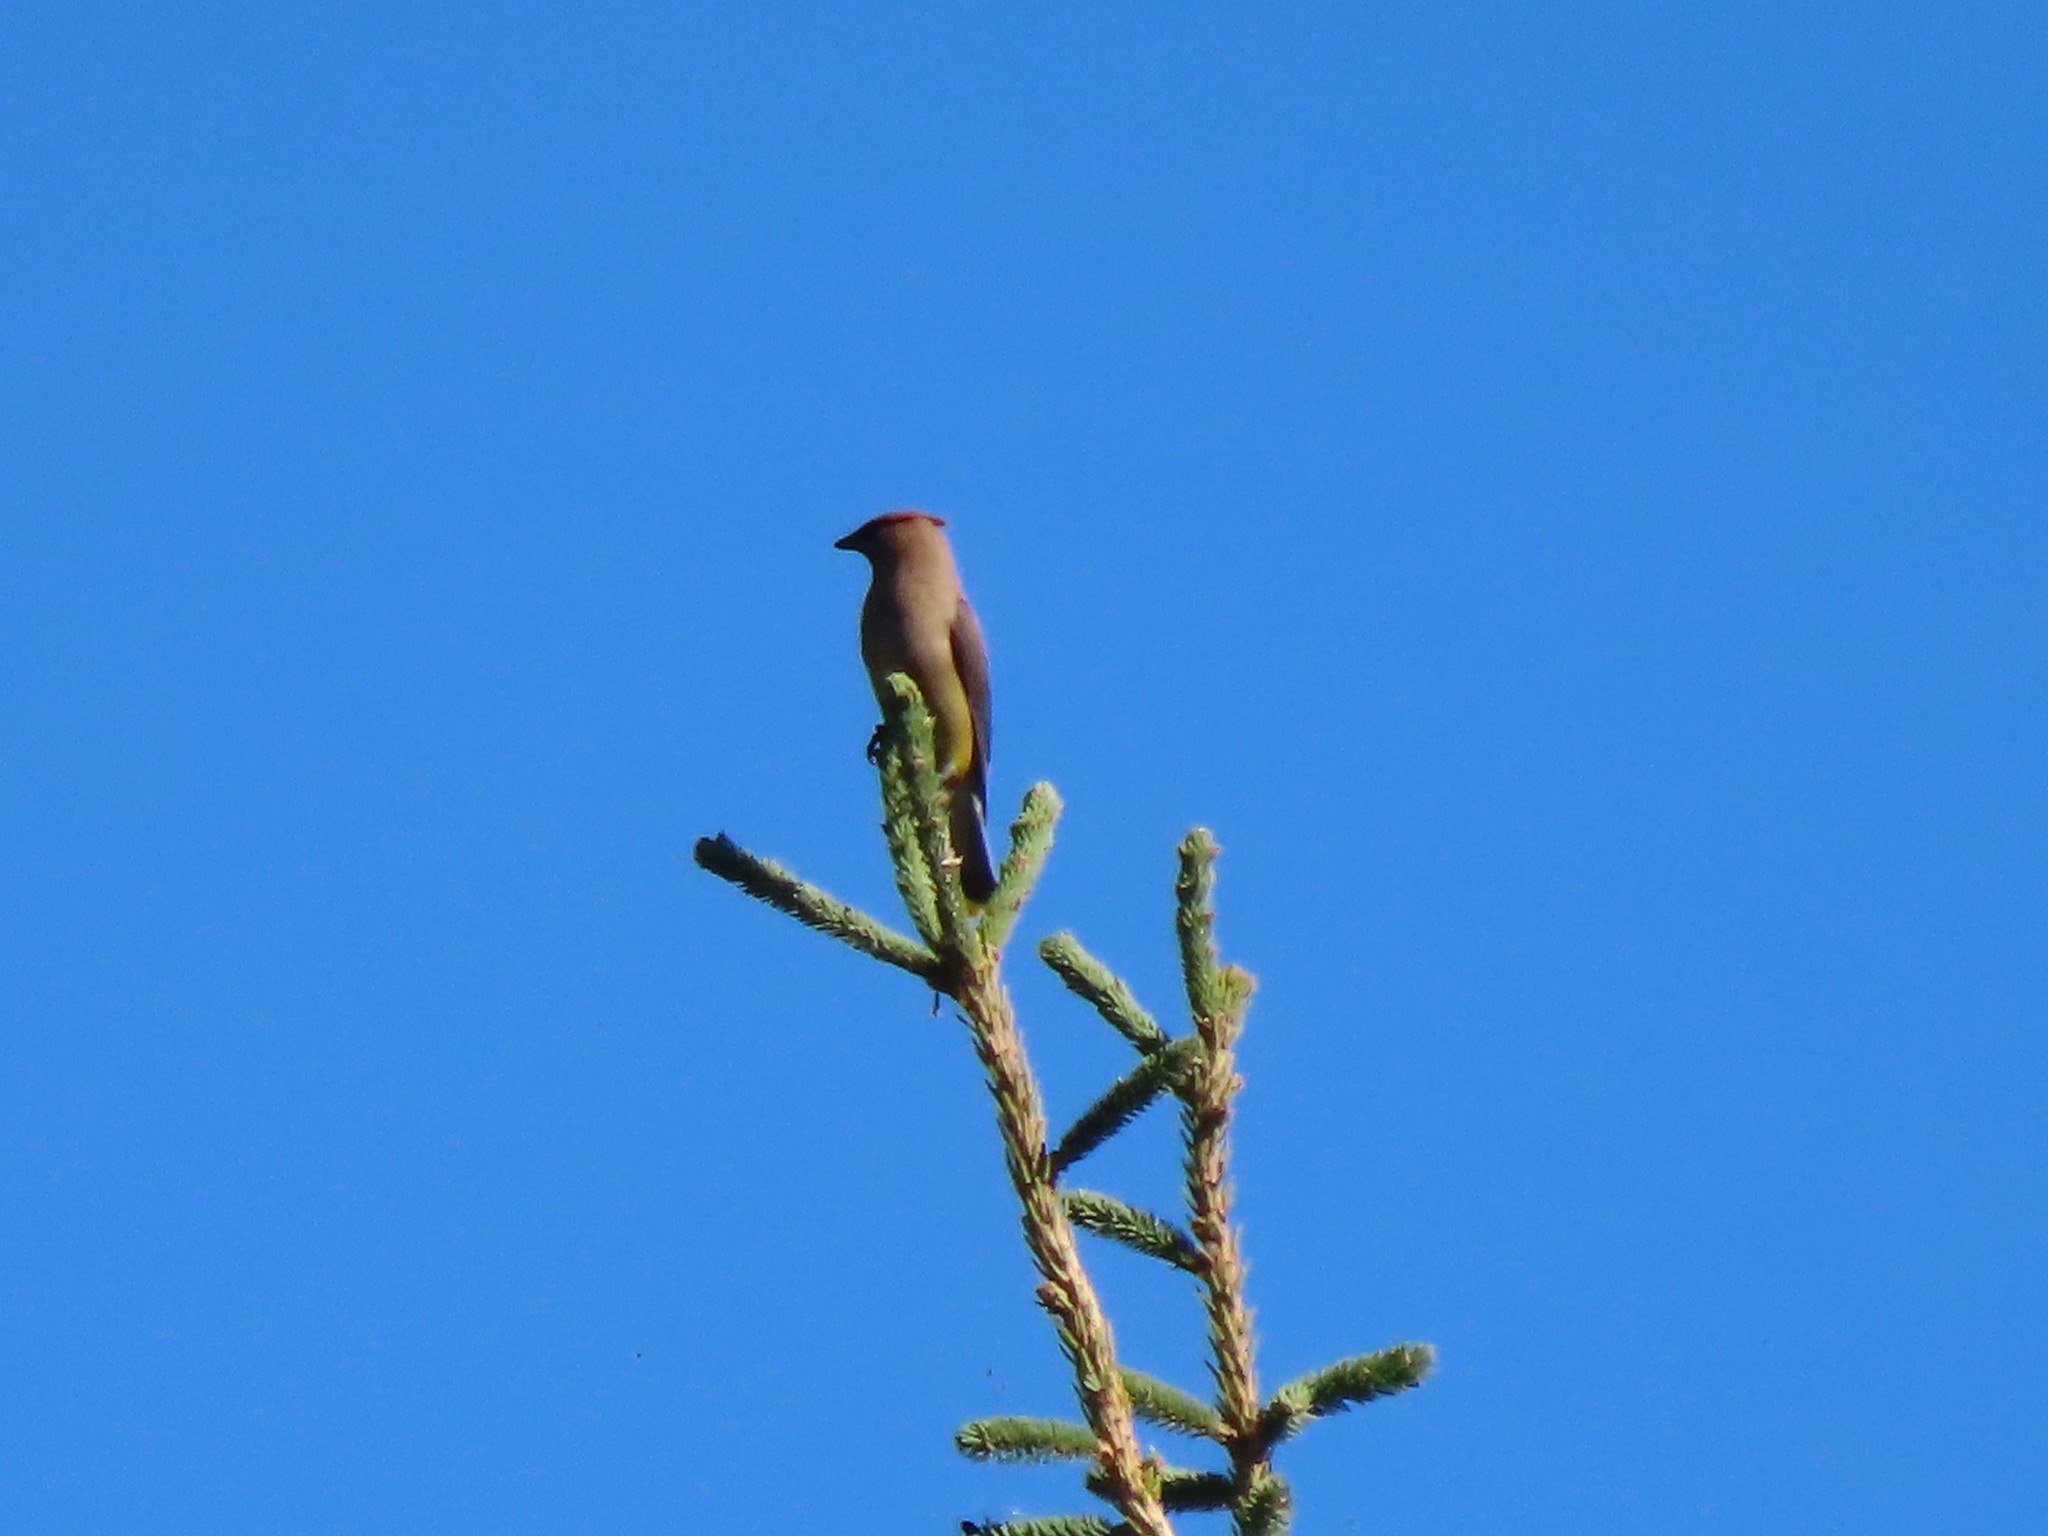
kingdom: Animalia
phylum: Chordata
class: Aves
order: Passeriformes
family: Bombycillidae
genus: Bombycilla
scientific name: Bombycilla cedrorum
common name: Cedar waxwing
